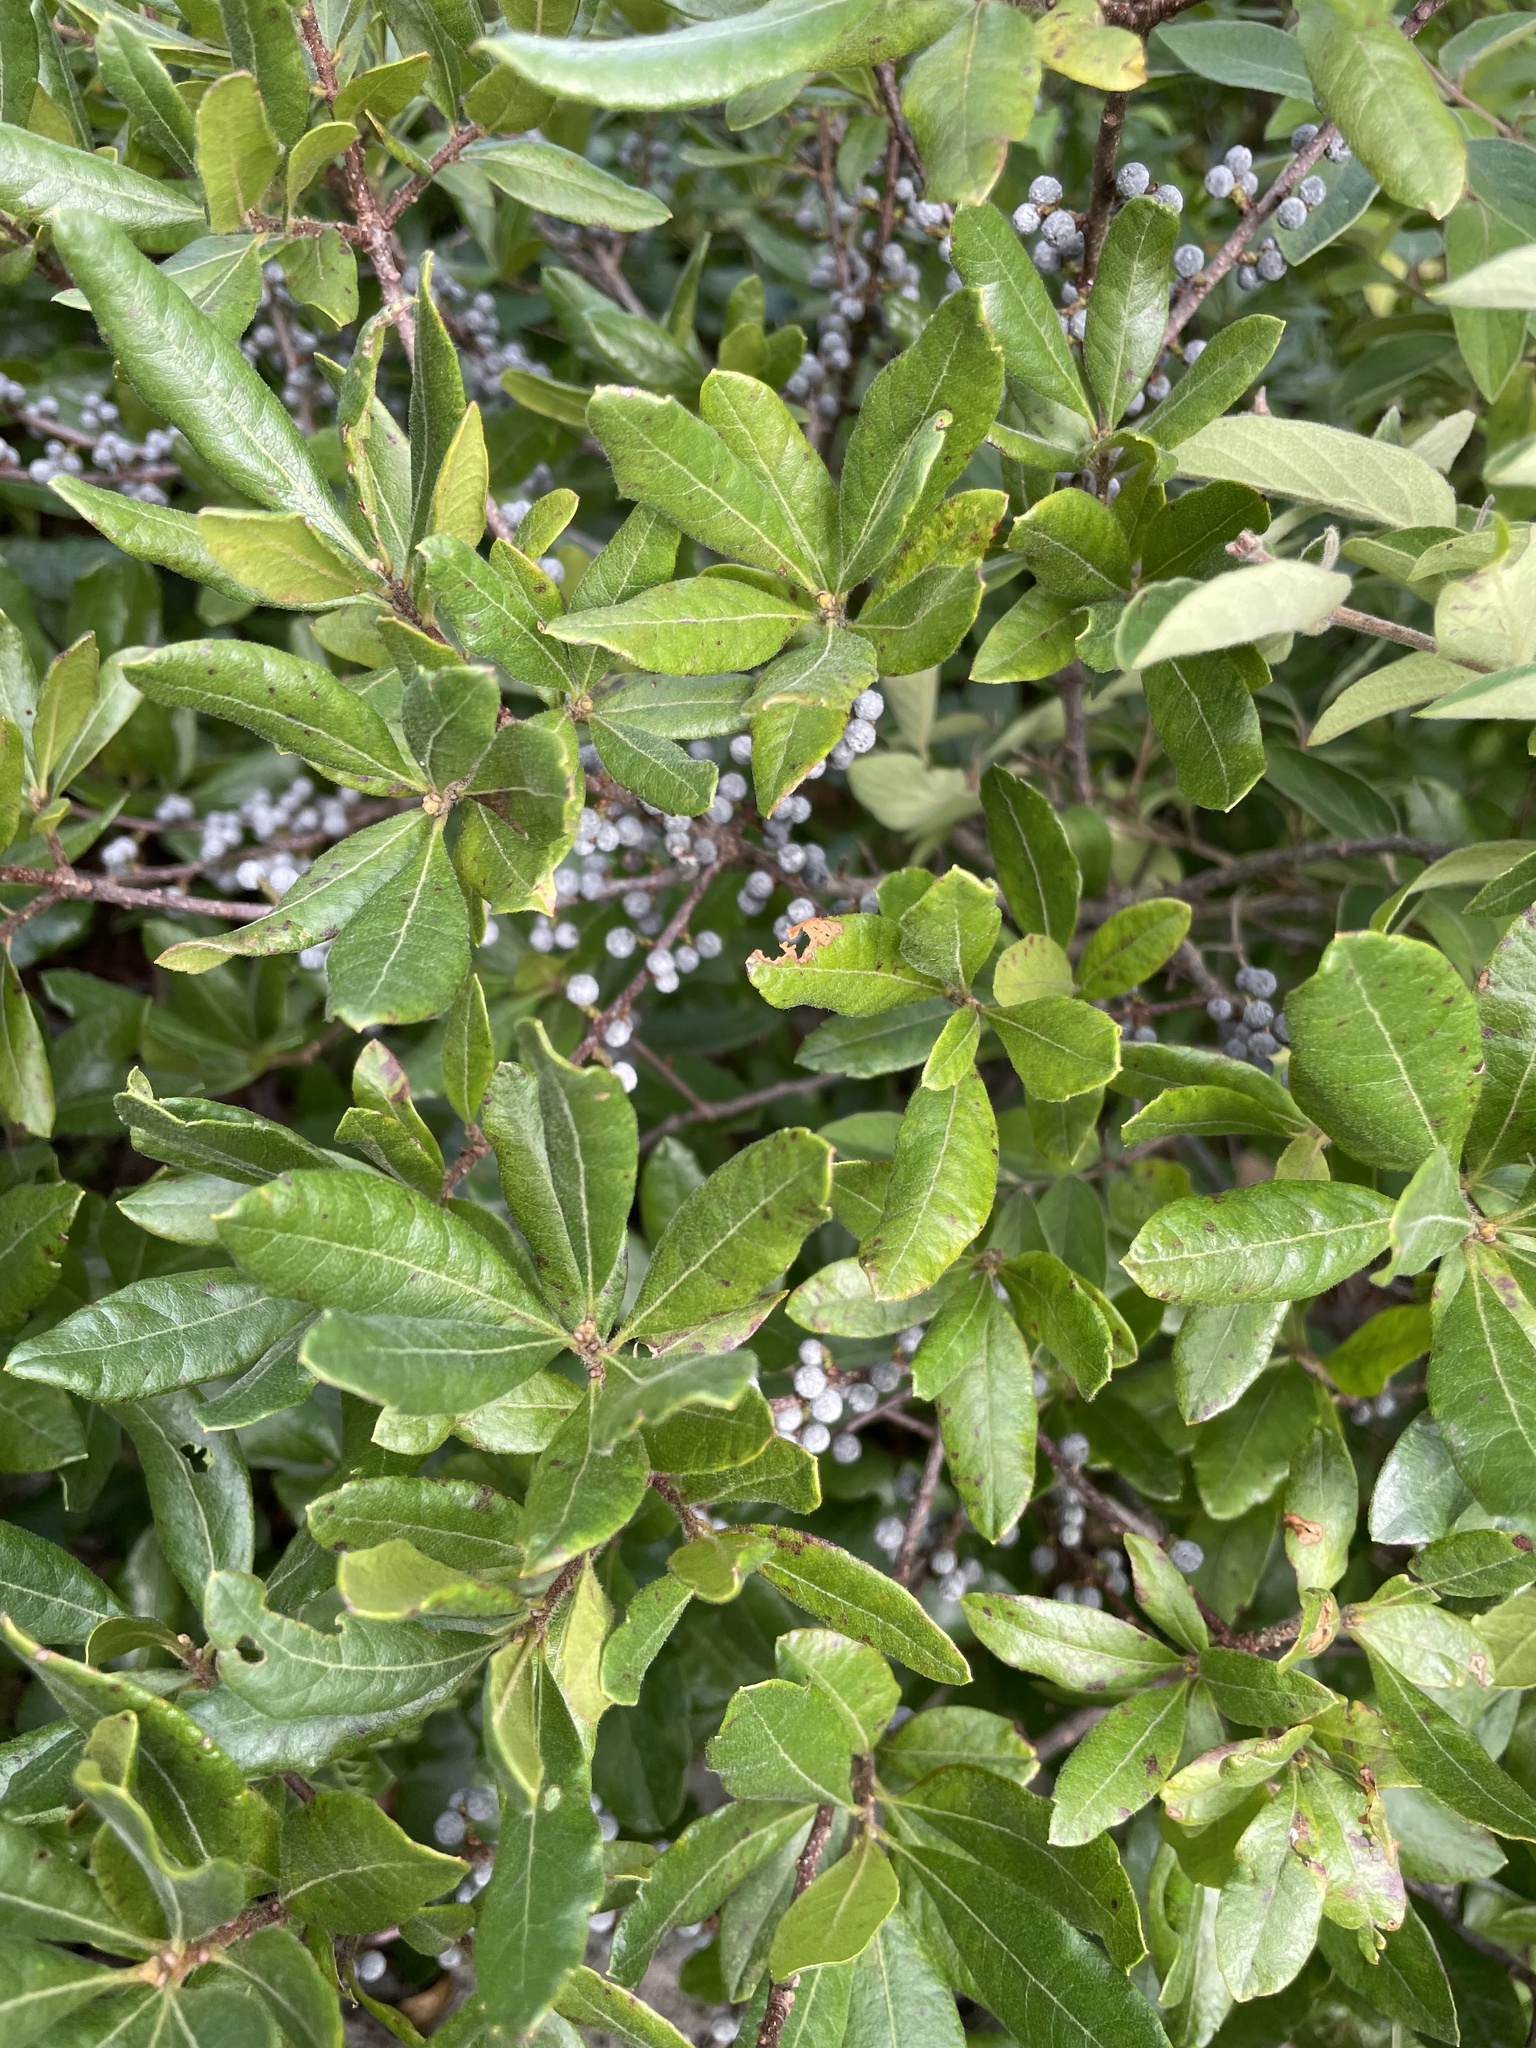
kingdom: Plantae
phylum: Tracheophyta
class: Magnoliopsida
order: Fagales
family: Myricaceae
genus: Morella
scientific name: Morella pensylvanica
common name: Northern bayberry
